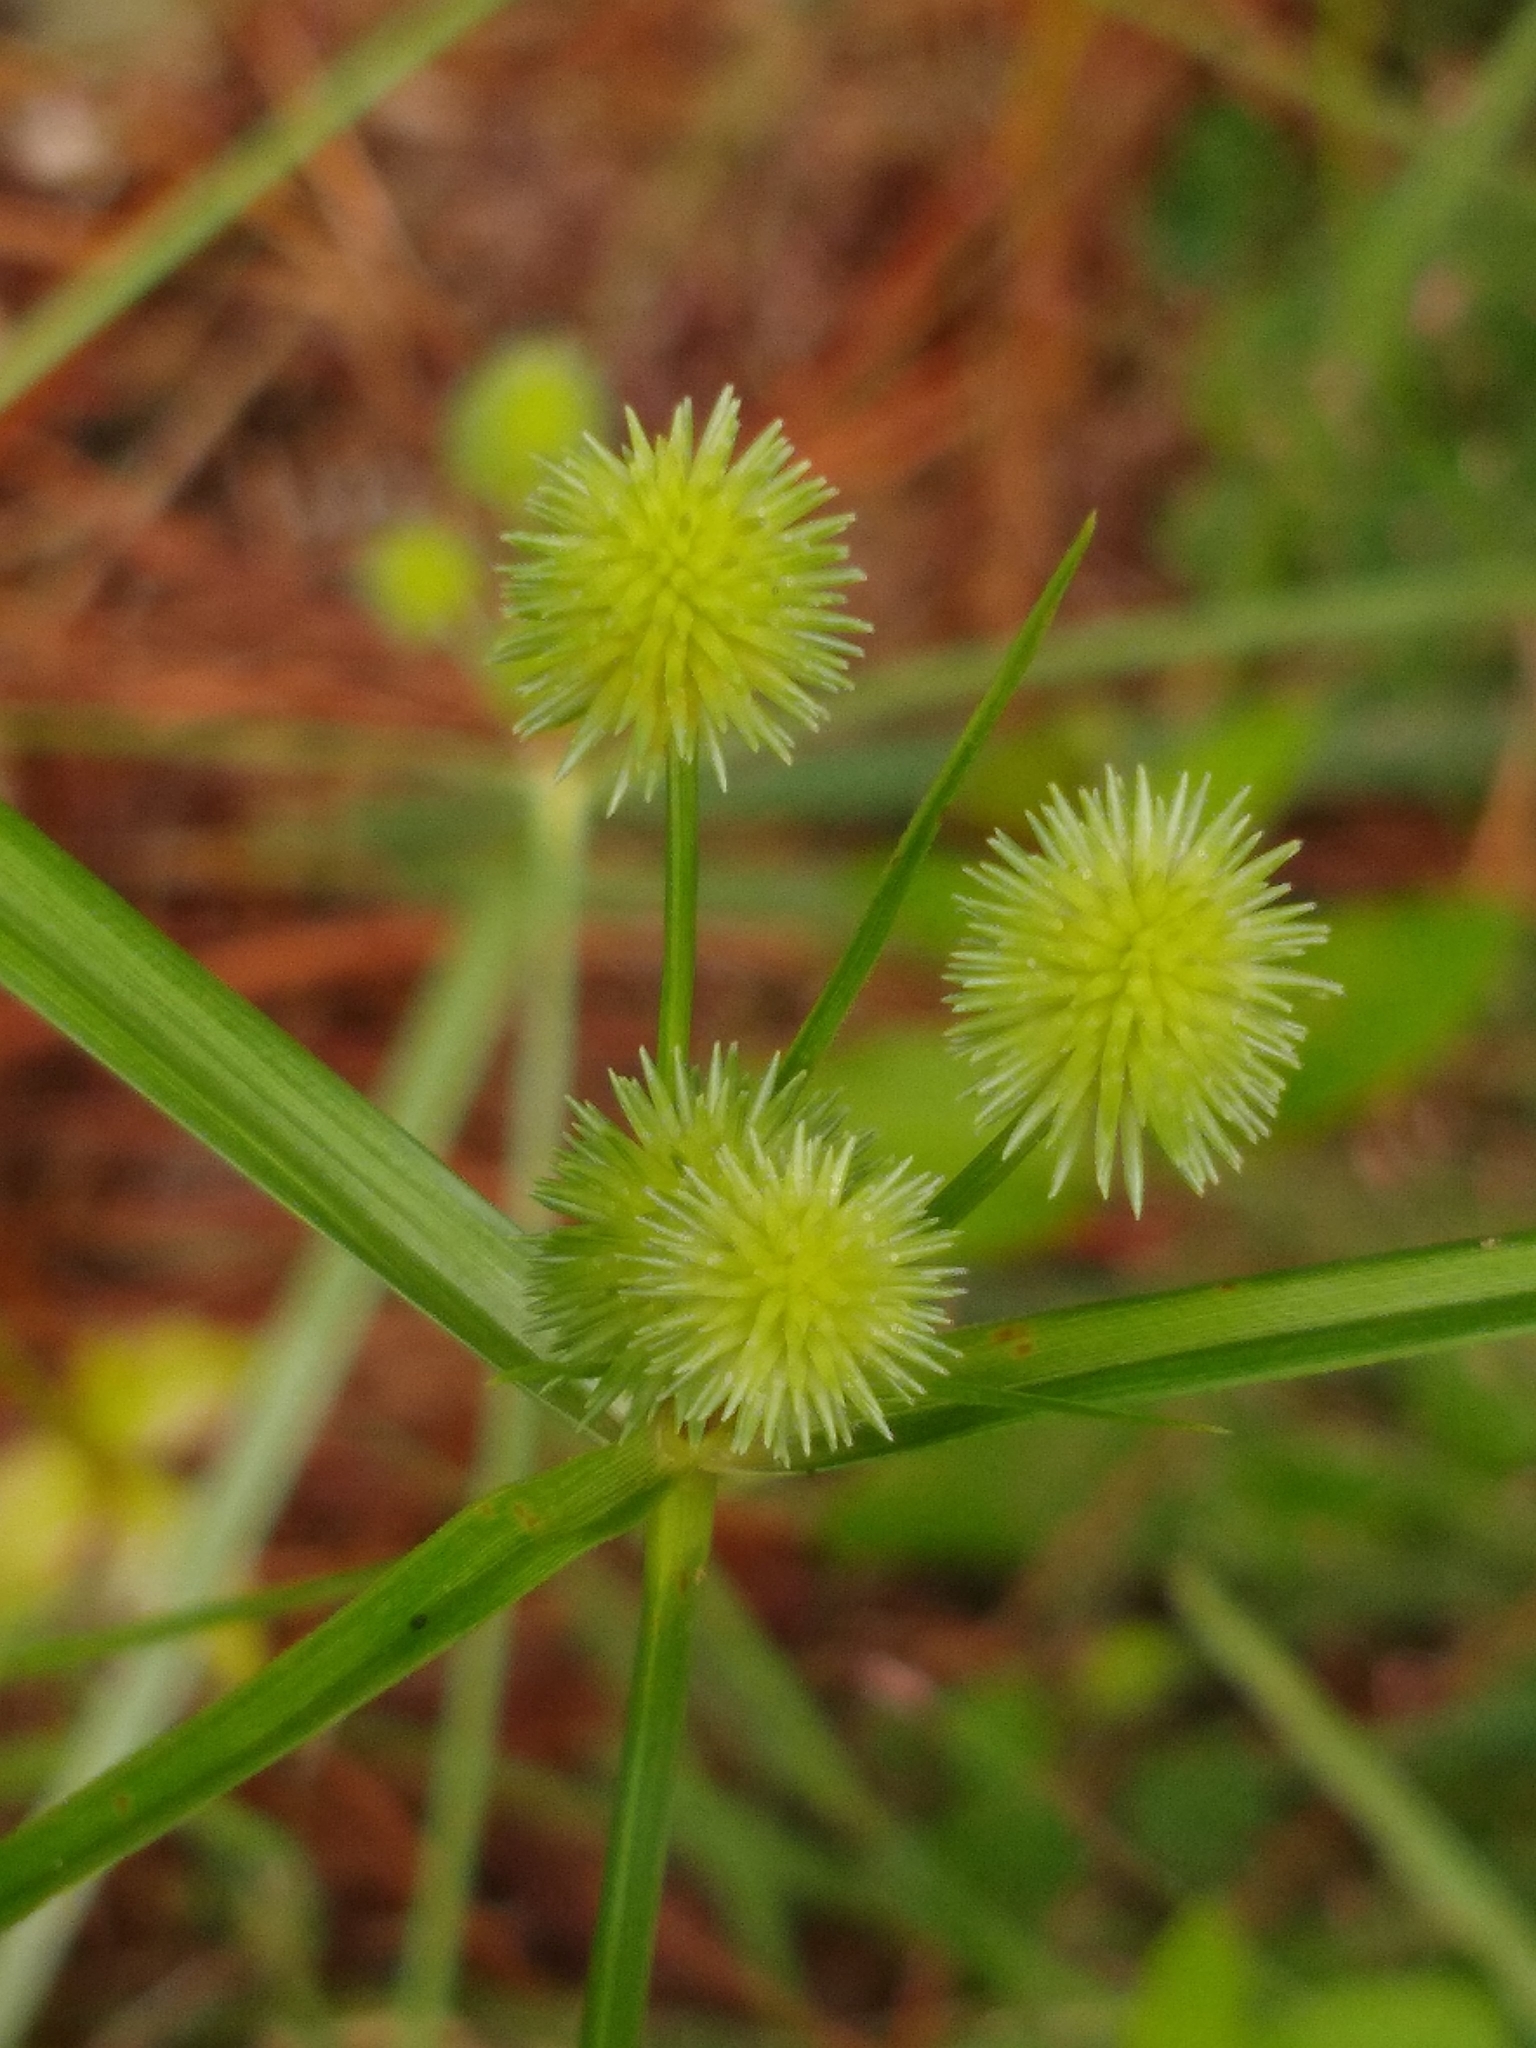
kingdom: Plantae
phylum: Tracheophyta
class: Liliopsida
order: Poales
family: Cyperaceae
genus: Cyperus
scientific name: Cyperus echinatus
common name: Teasel sedge
